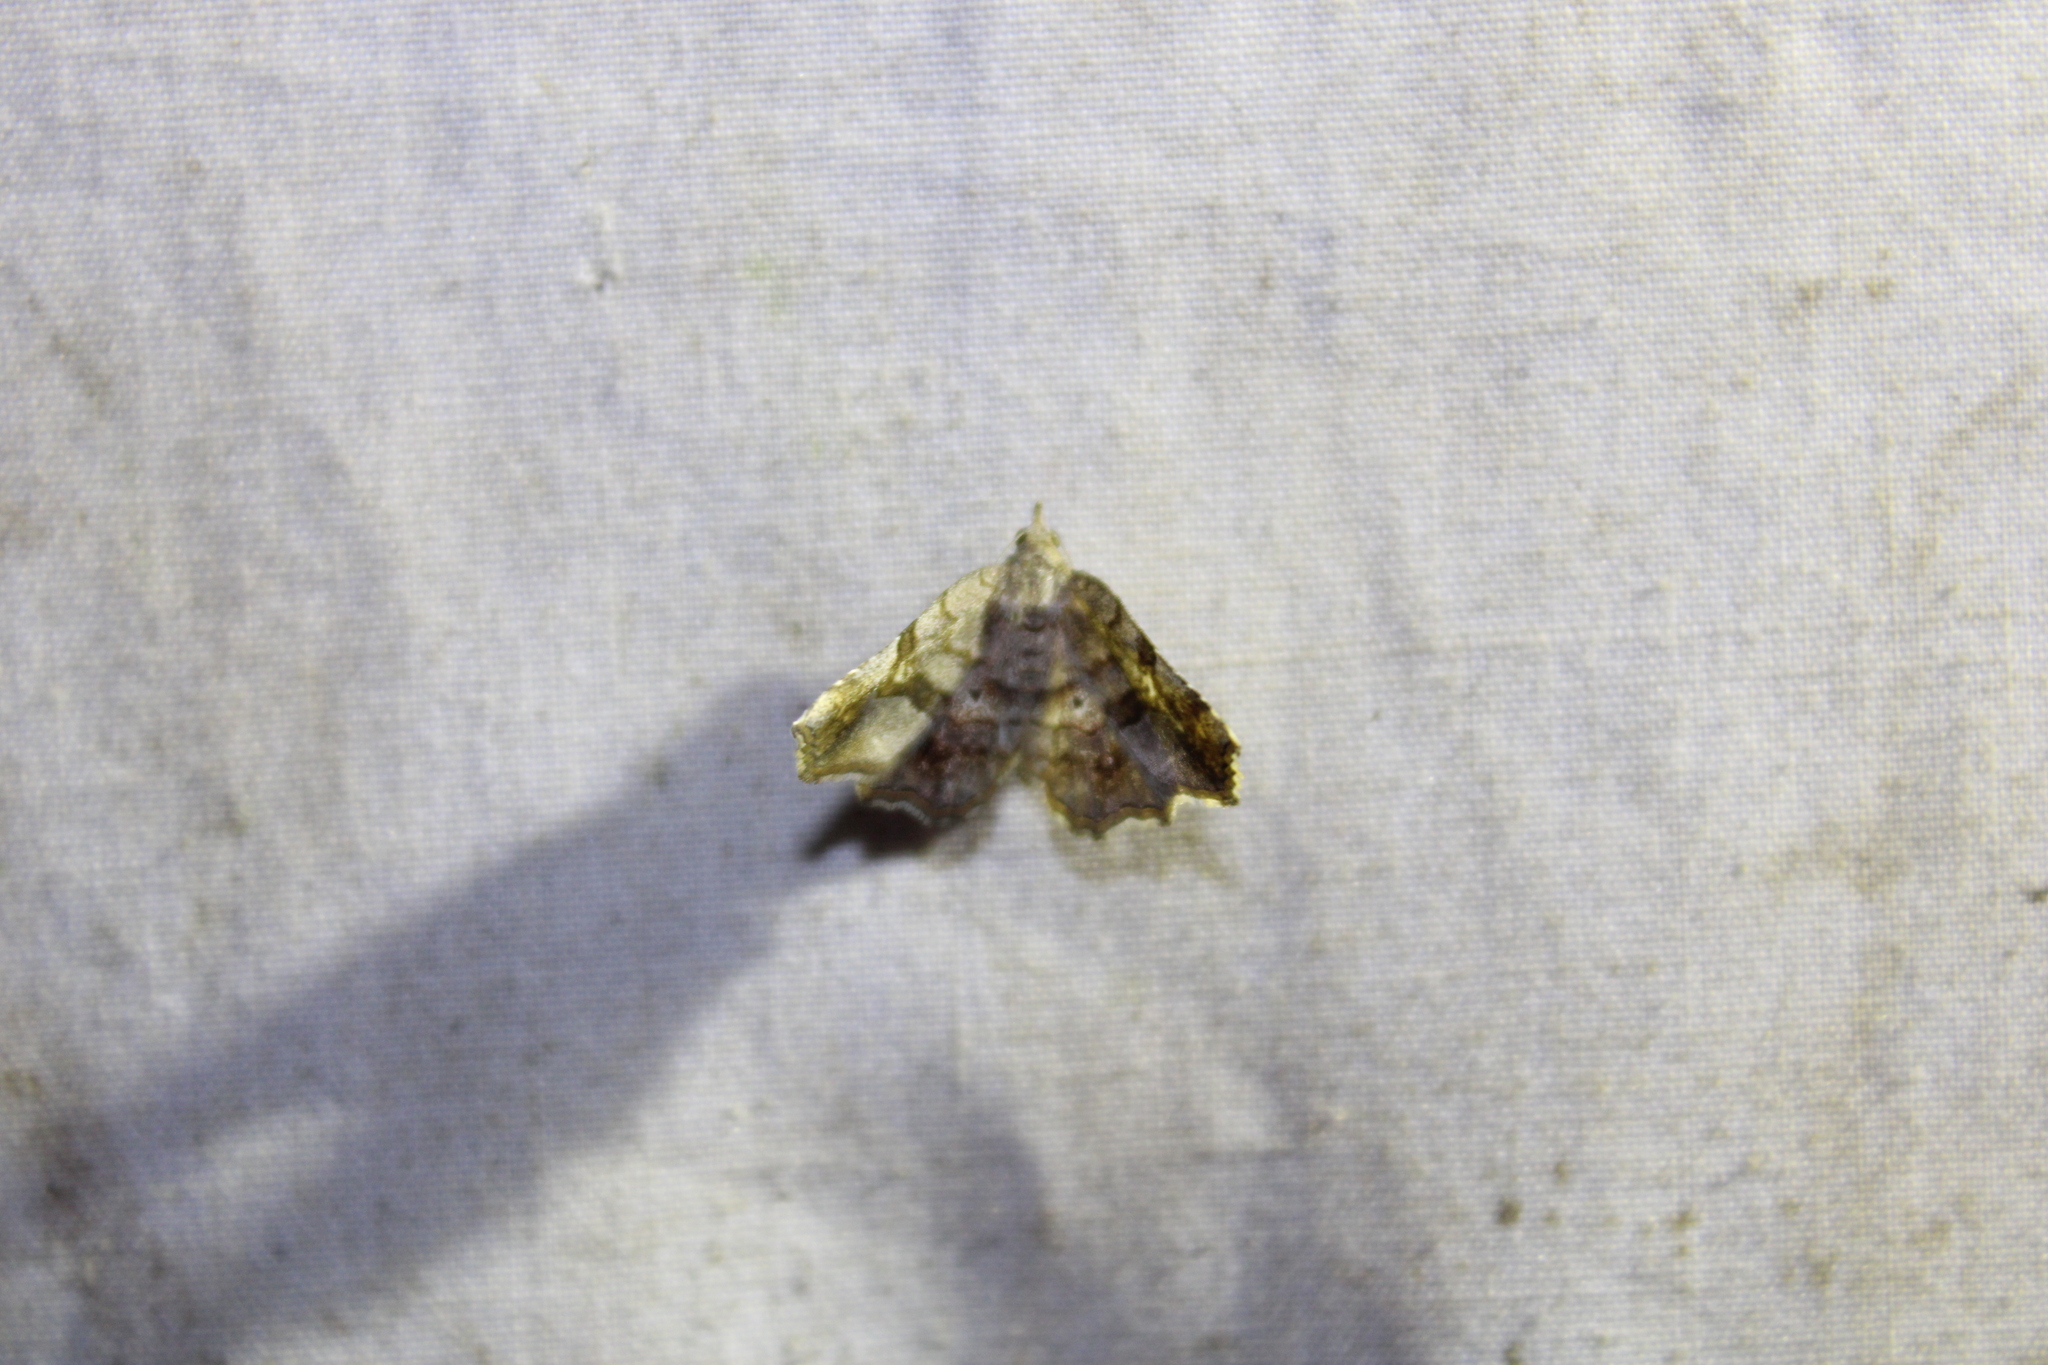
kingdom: Animalia
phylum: Arthropoda
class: Insecta
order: Lepidoptera
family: Erebidae
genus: Pangrapta
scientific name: Pangrapta decoralis
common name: Decorated owlet
